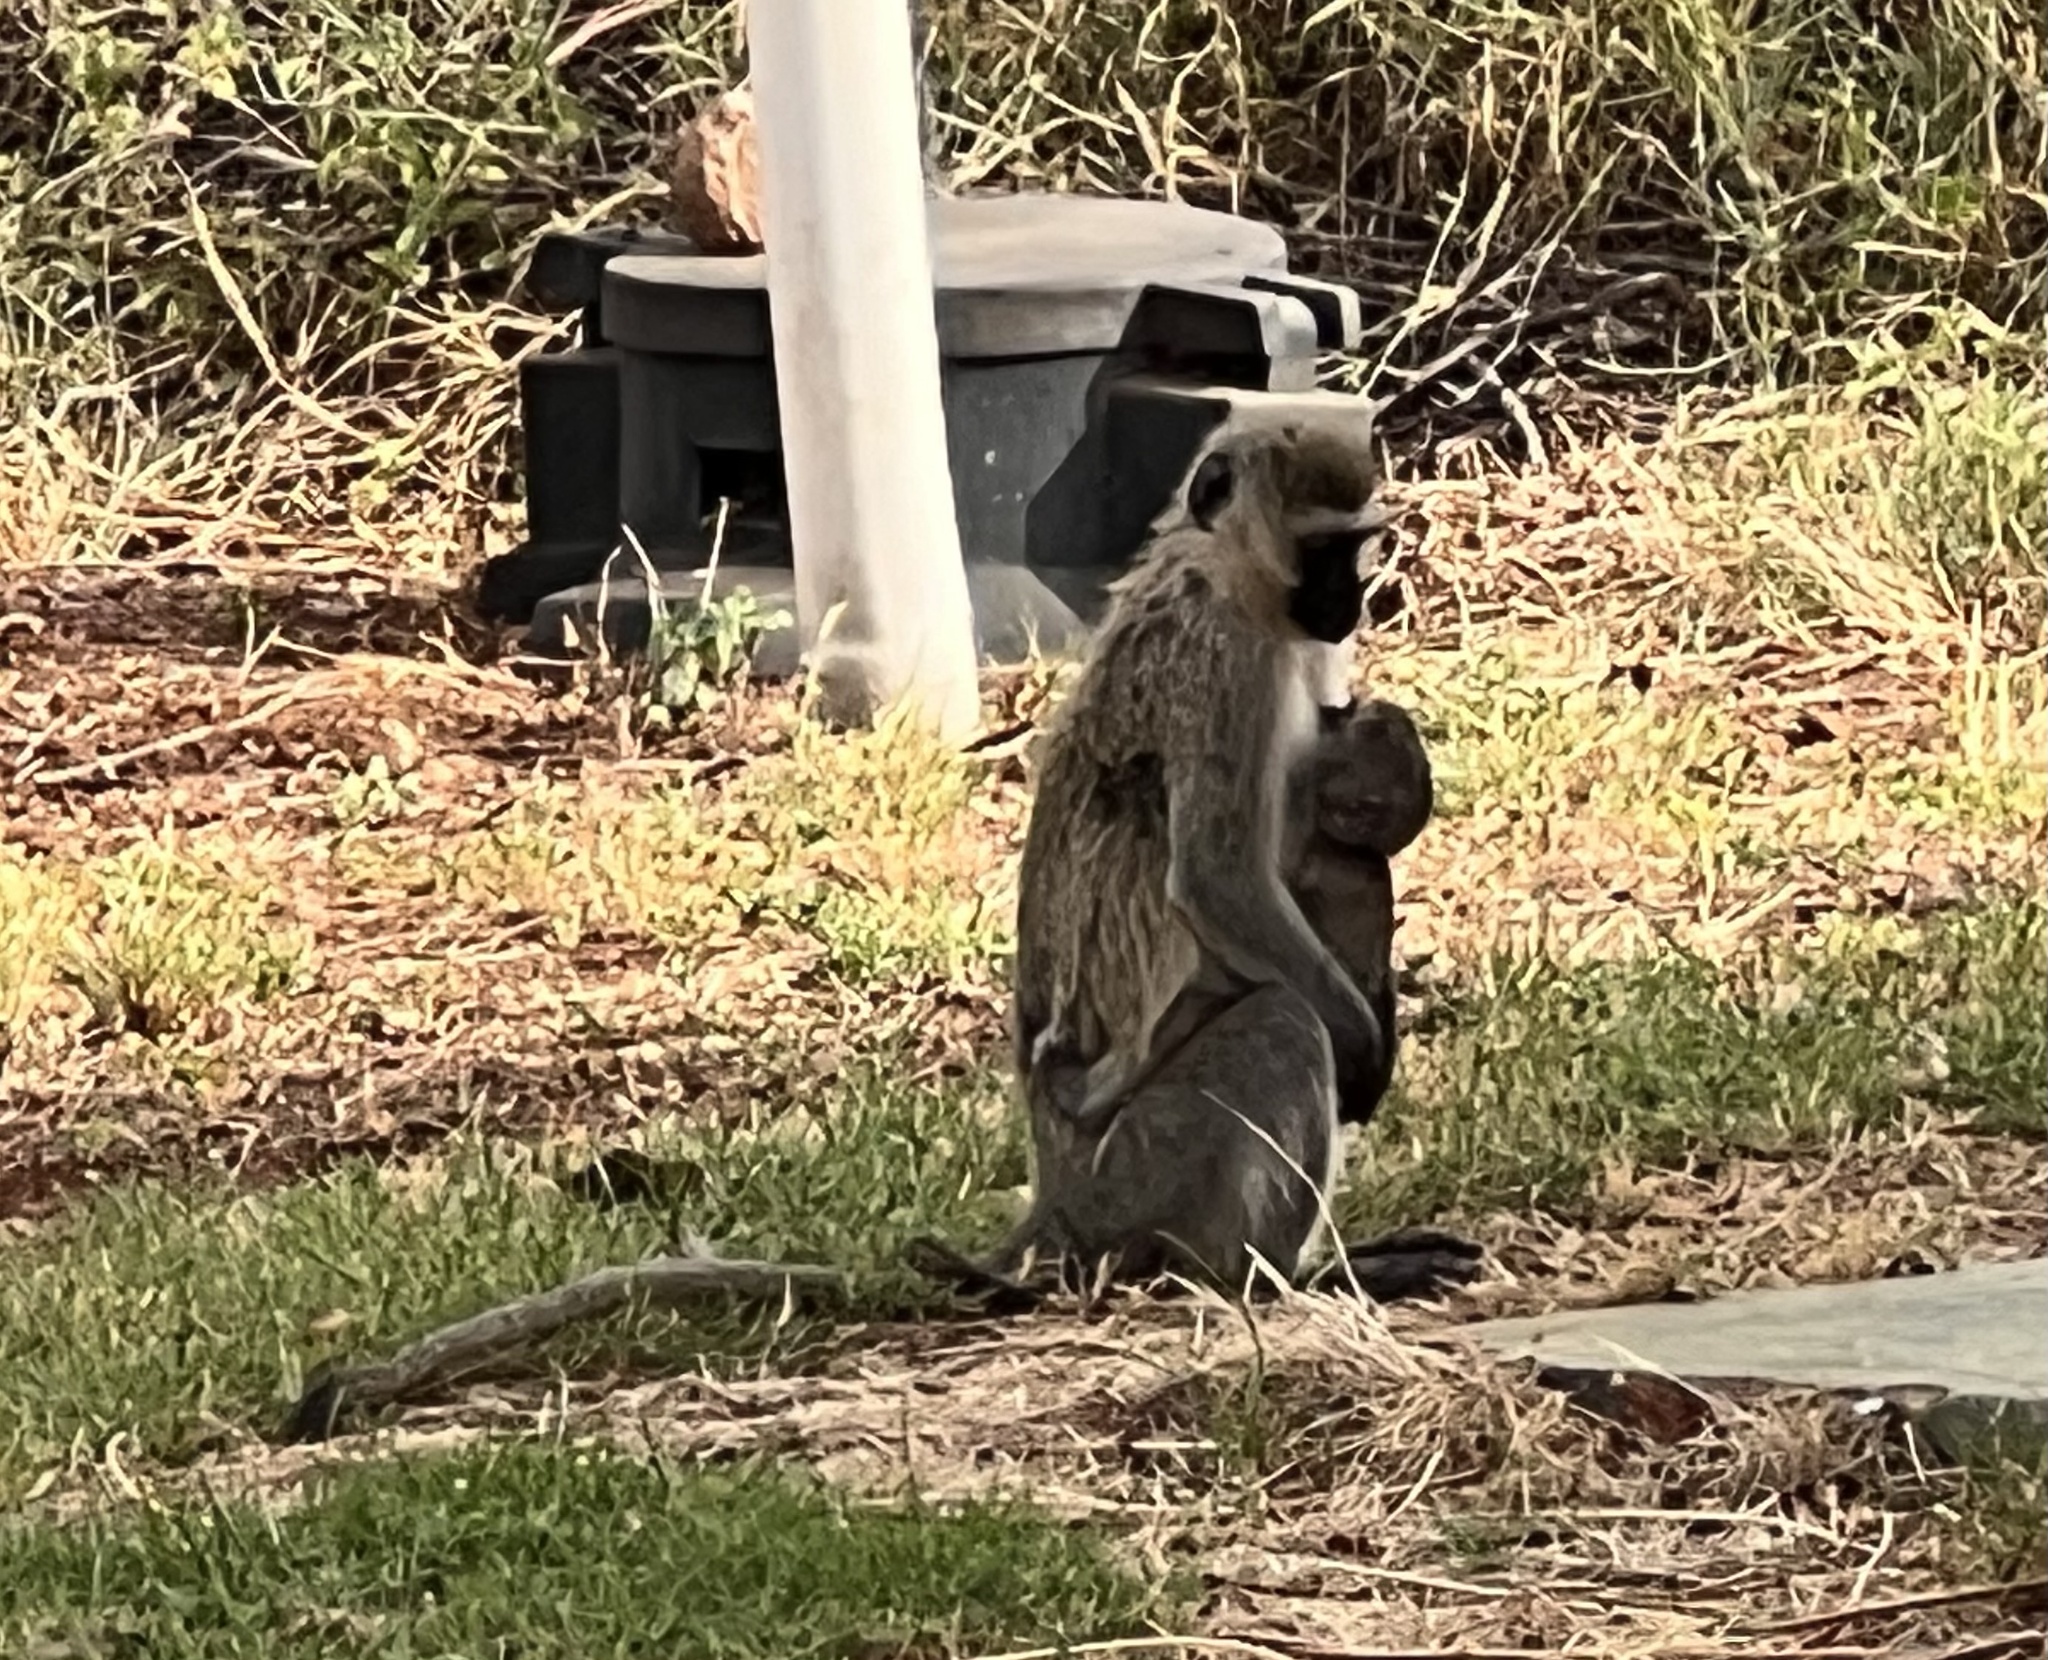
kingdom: Animalia
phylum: Chordata
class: Mammalia
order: Primates
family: Cercopithecidae
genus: Chlorocebus
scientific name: Chlorocebus pygerythrus
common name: Vervet monkey
